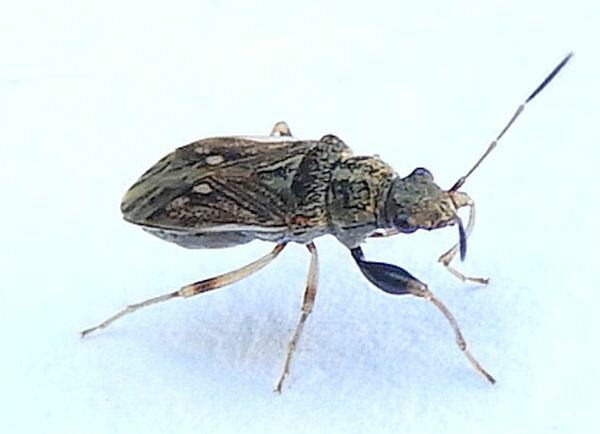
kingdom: Animalia
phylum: Arthropoda
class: Insecta
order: Hemiptera
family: Rhyparochromidae
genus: Pseudopachybrachius
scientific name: Pseudopachybrachius basalis
